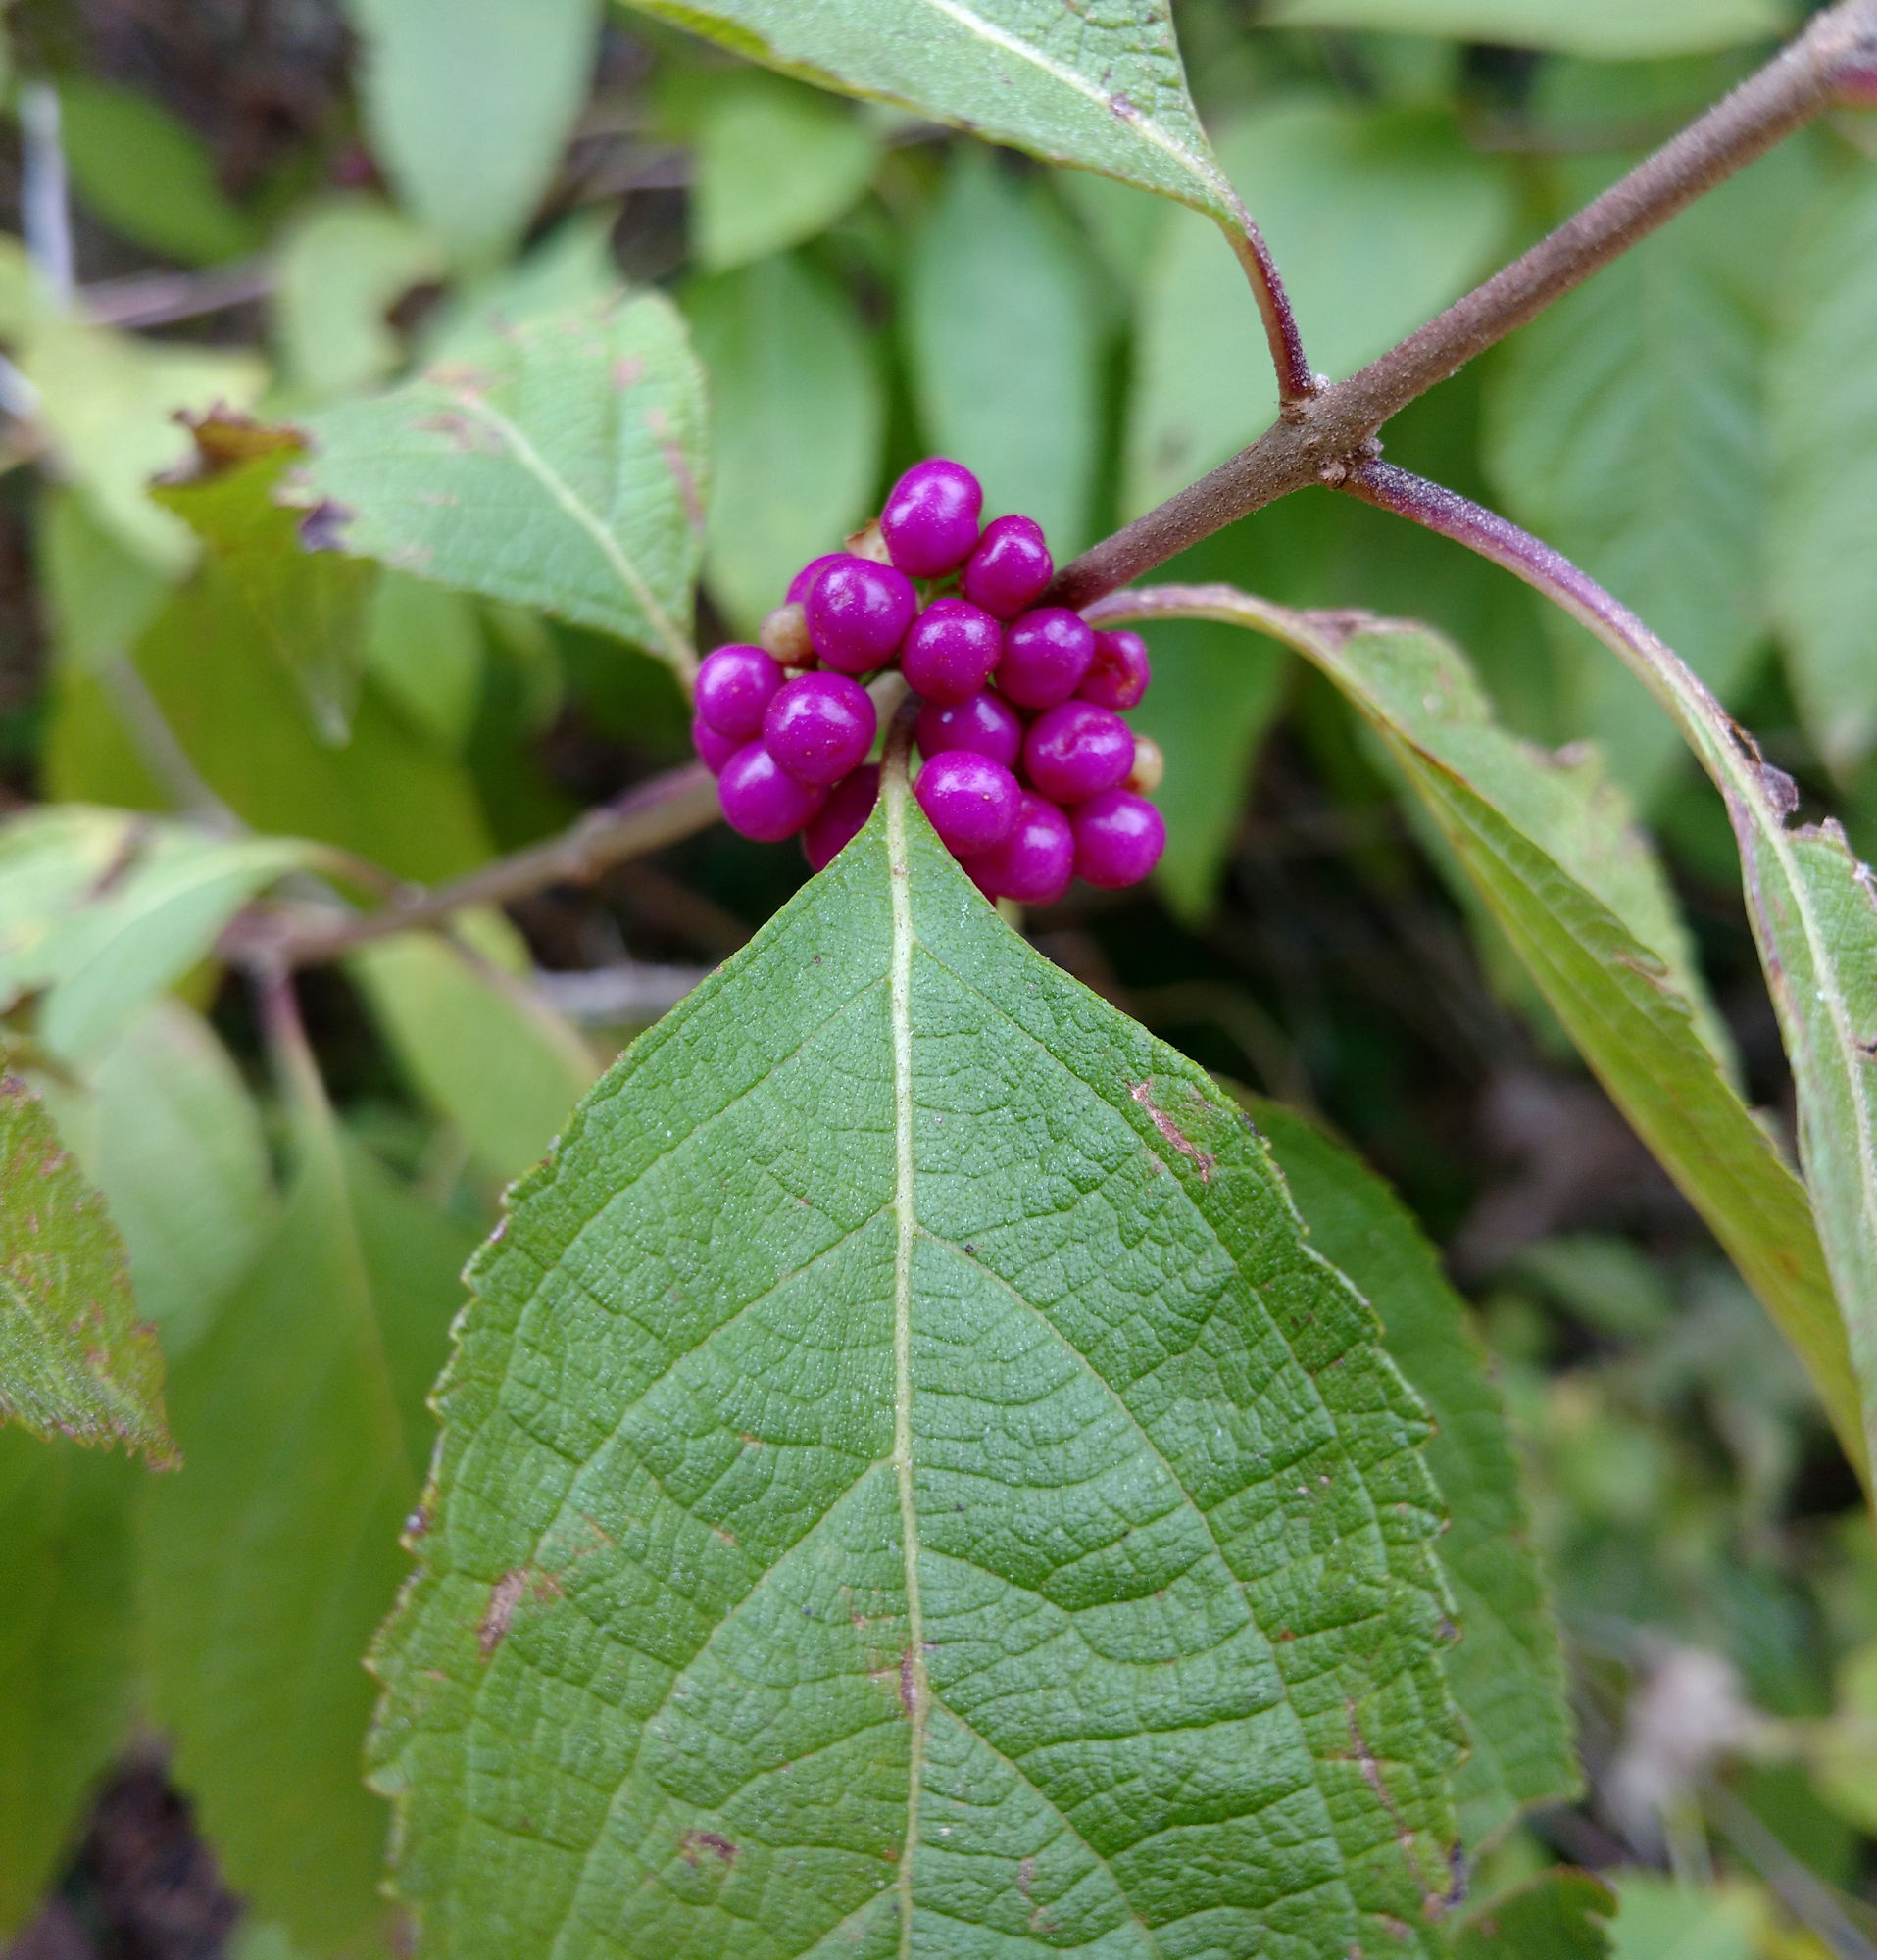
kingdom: Plantae
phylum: Tracheophyta
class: Magnoliopsida
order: Lamiales
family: Lamiaceae
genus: Callicarpa
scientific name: Callicarpa americana
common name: American beautyberry
